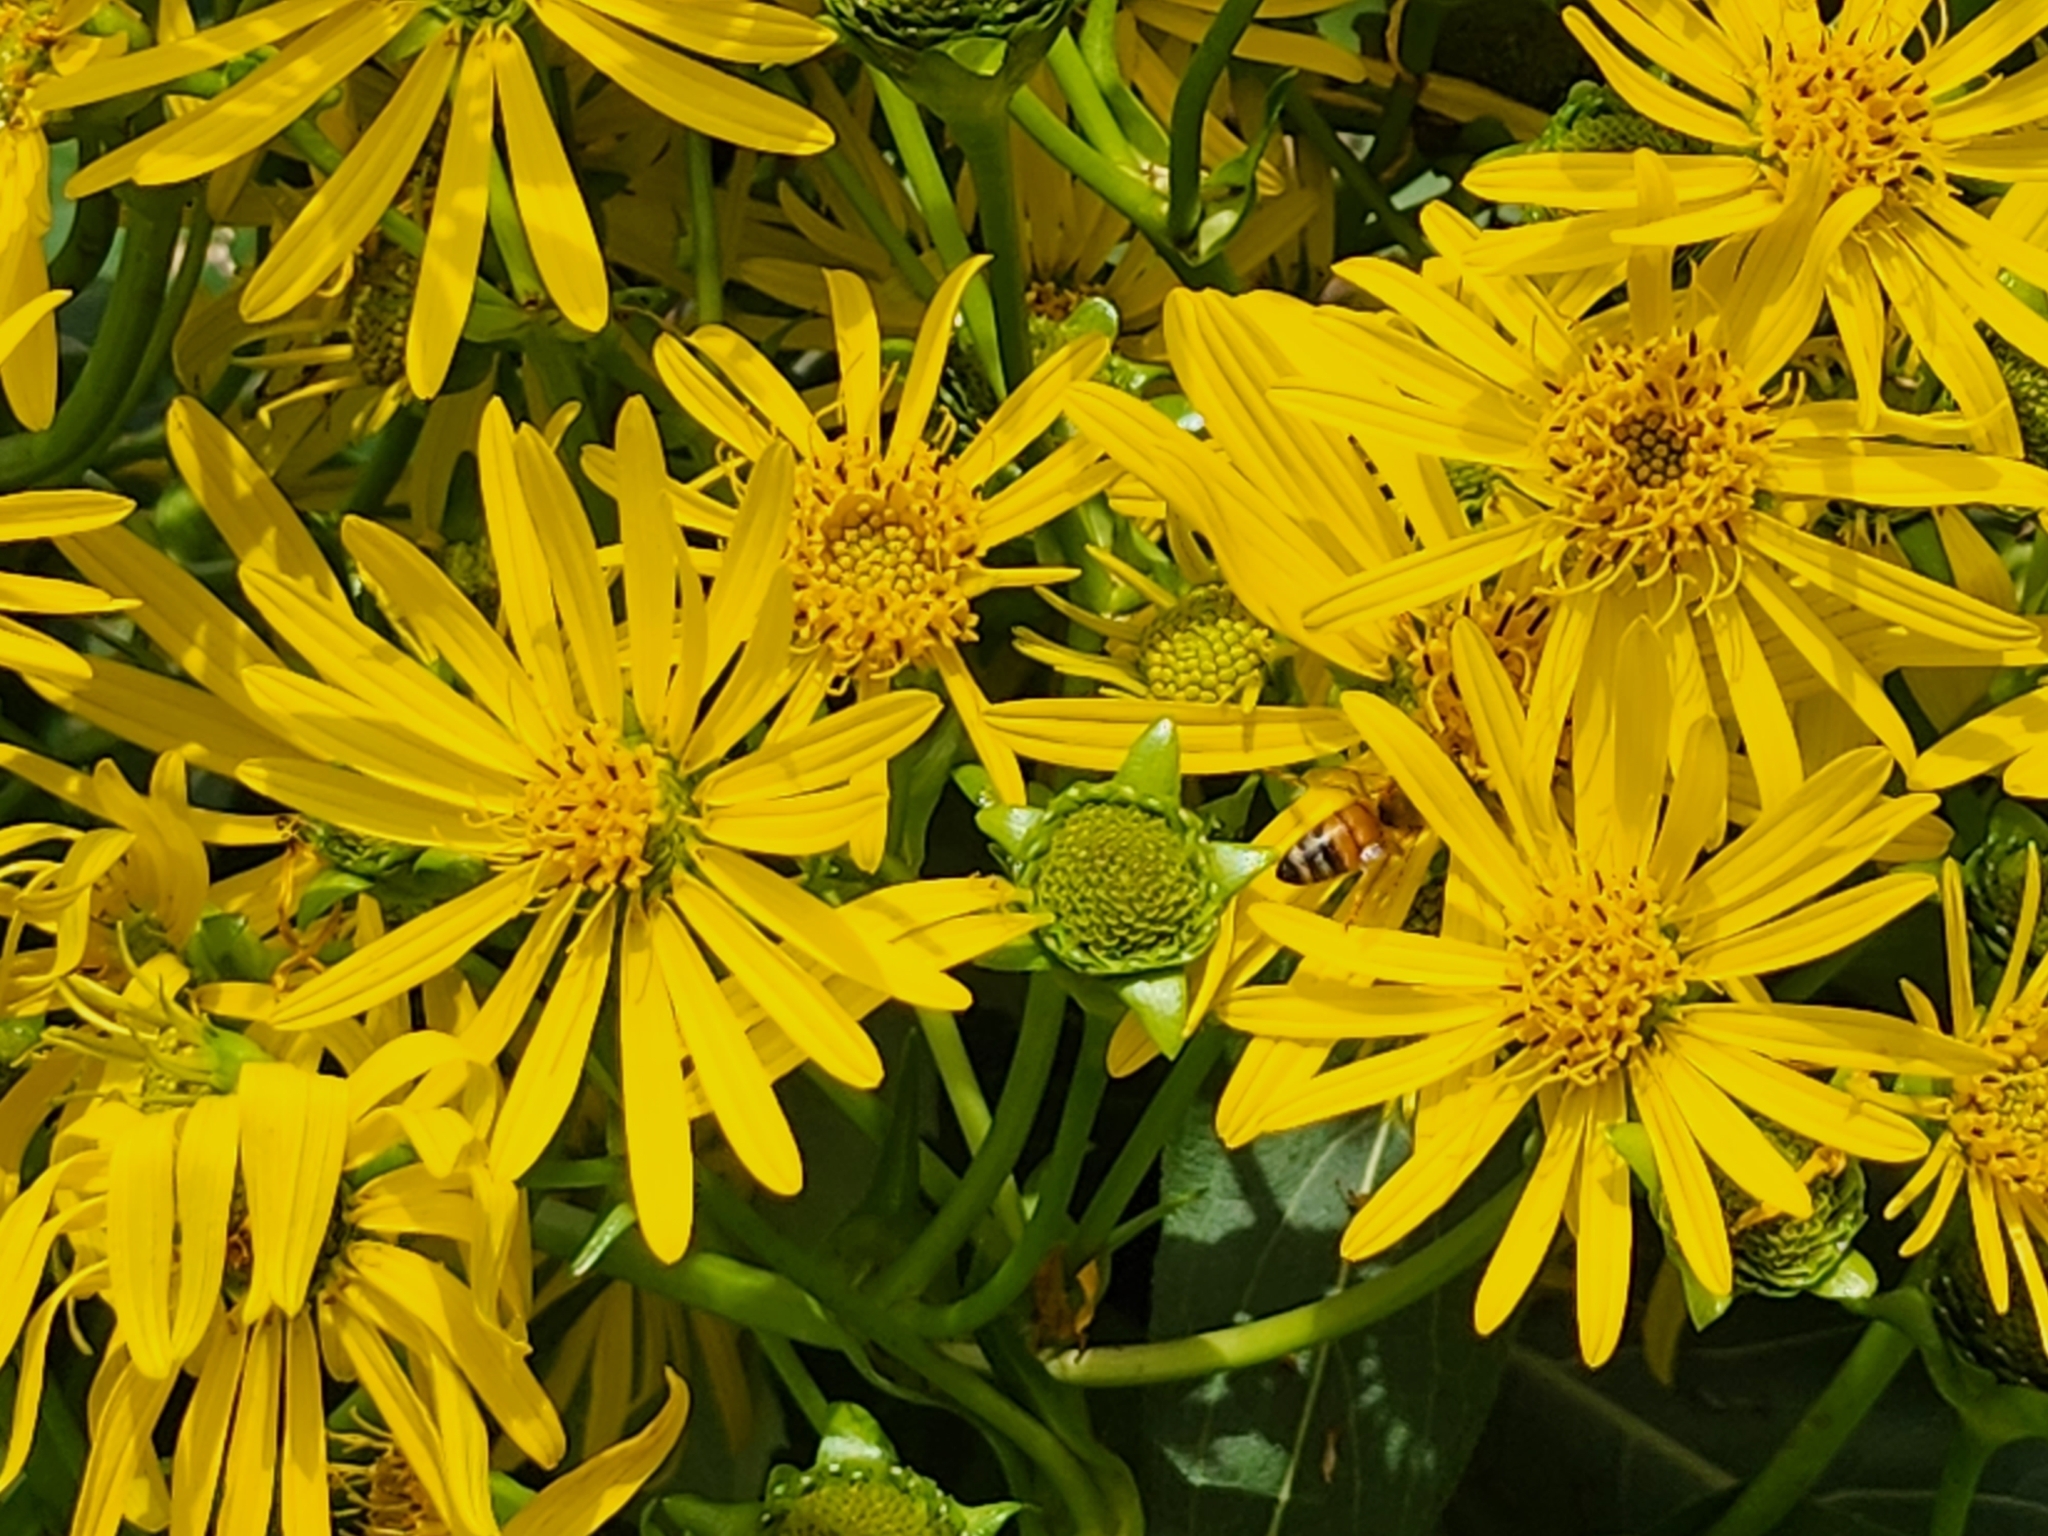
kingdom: Animalia
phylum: Arthropoda
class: Insecta
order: Hymenoptera
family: Apidae
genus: Apis
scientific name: Apis mellifera
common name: Honey bee
